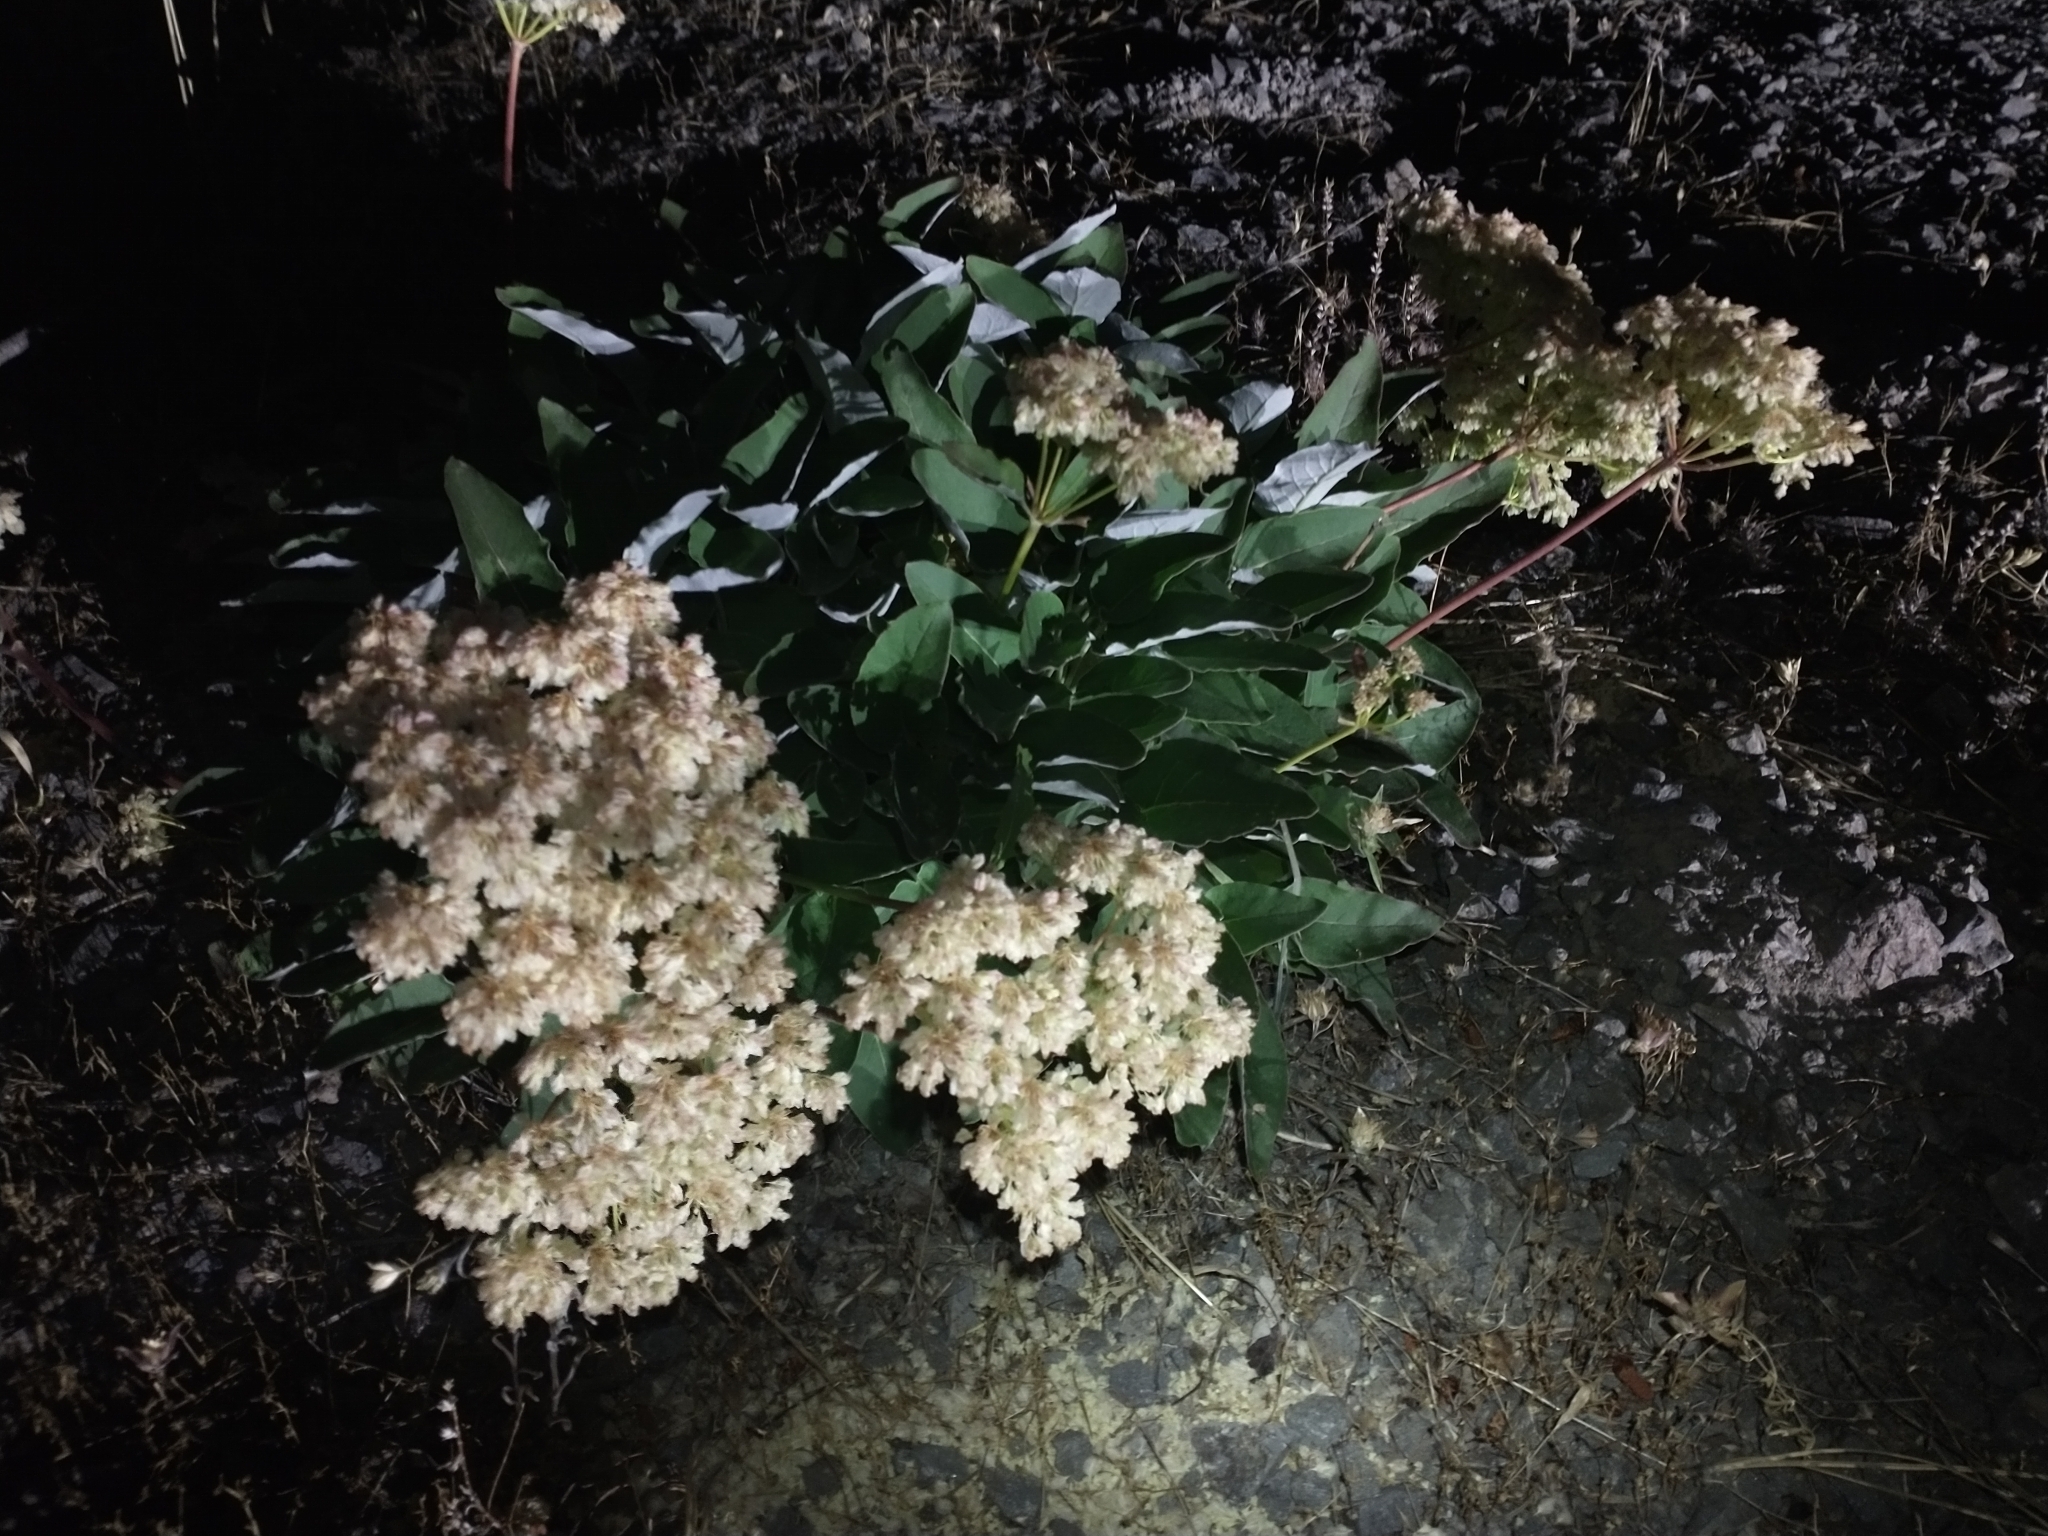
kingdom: Plantae
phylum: Tracheophyta
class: Magnoliopsida
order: Caryophyllales
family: Polygonaceae
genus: Eriogonum
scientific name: Eriogonum compositum
